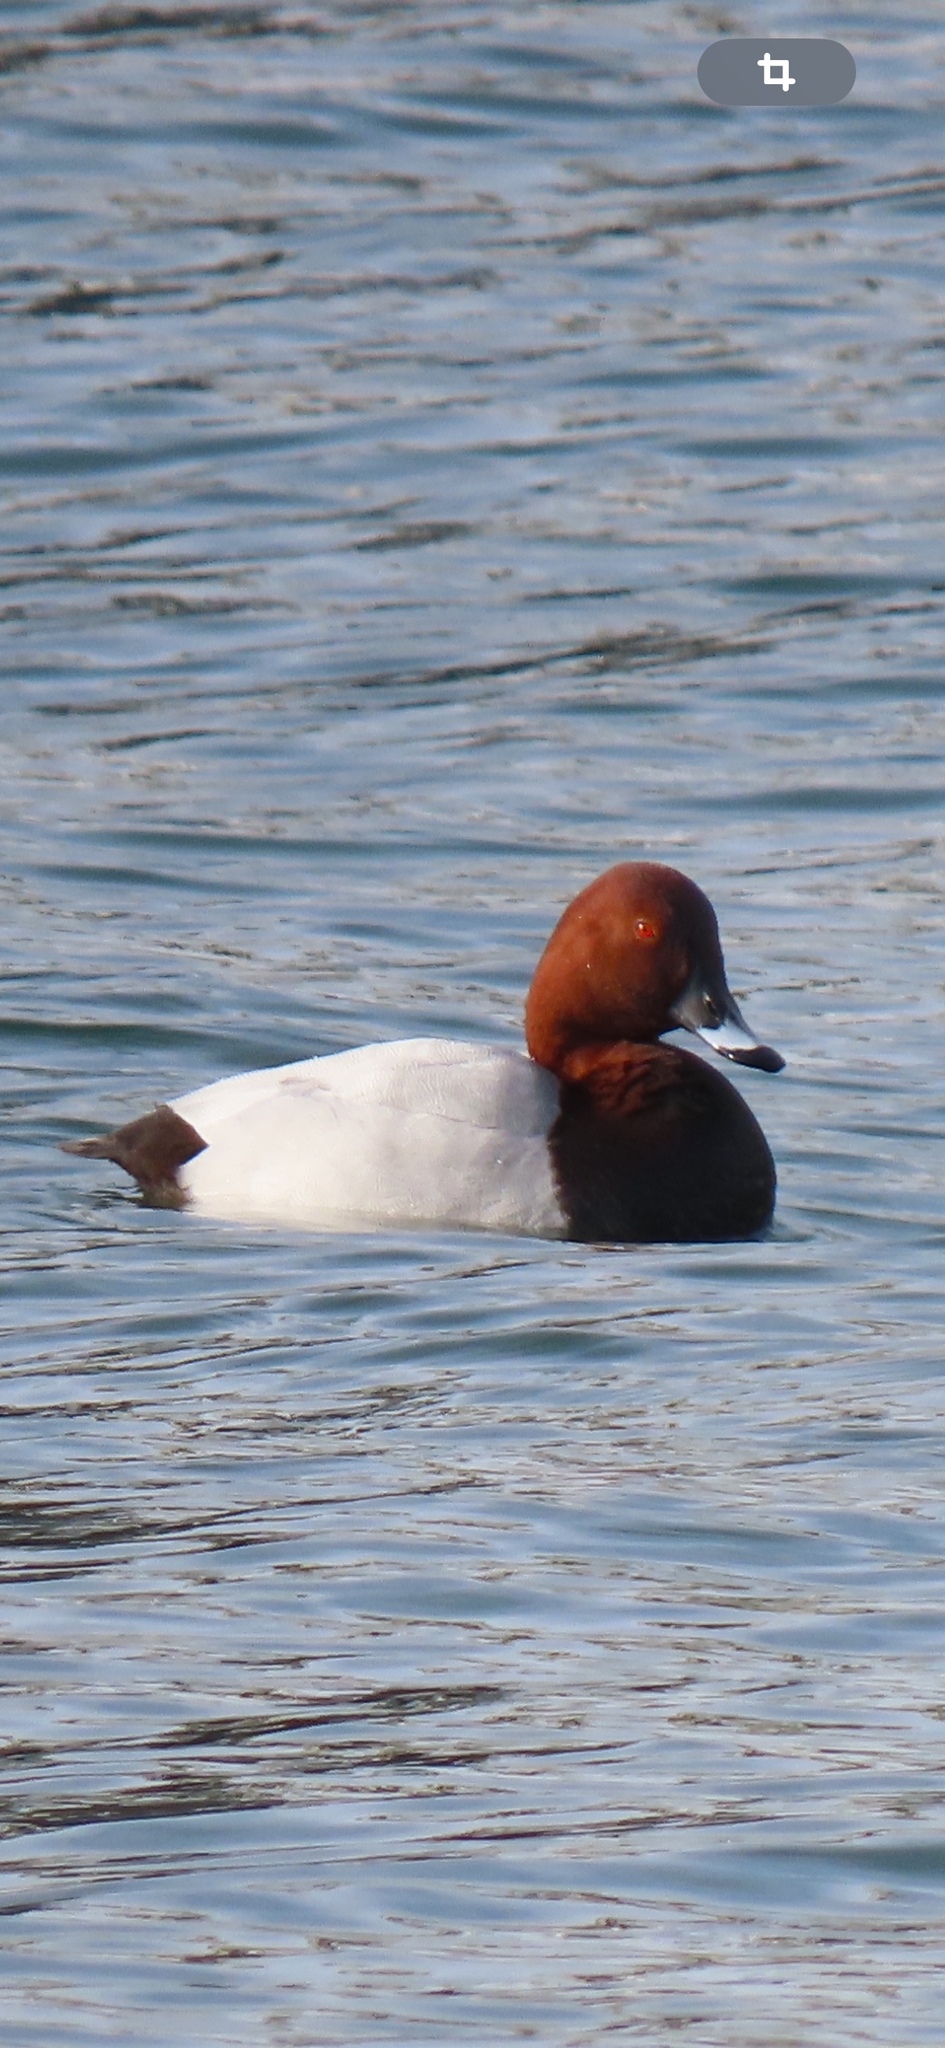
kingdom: Animalia
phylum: Chordata
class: Aves
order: Anseriformes
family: Anatidae
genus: Aythya
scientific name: Aythya ferina
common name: Common pochard
